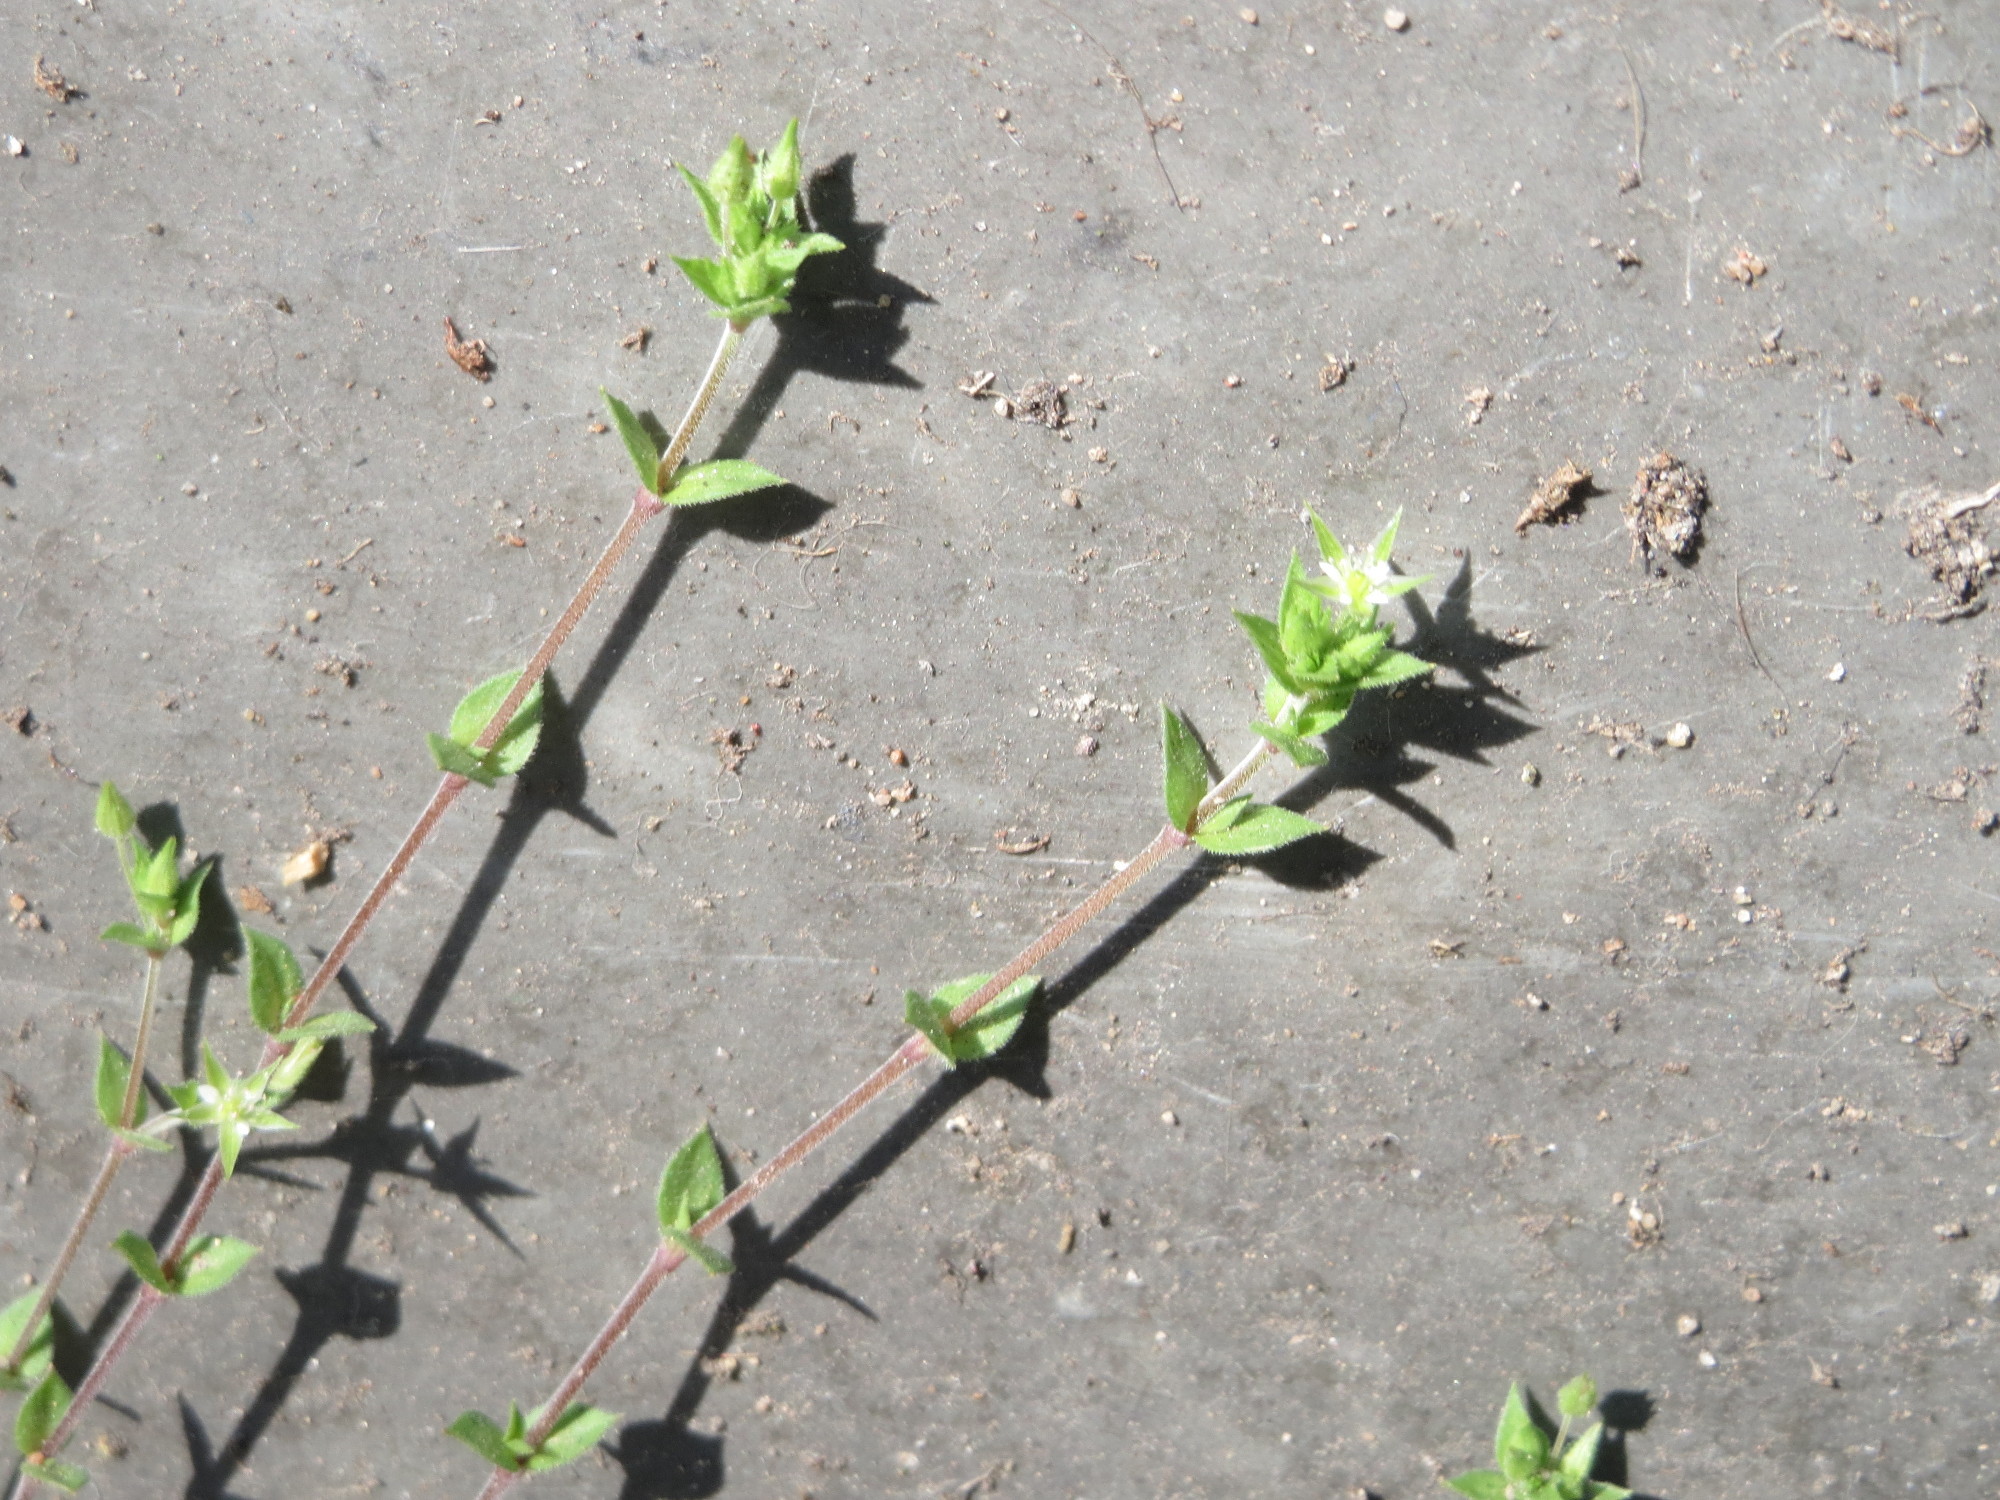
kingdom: Plantae
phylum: Tracheophyta
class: Magnoliopsida
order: Caryophyllales
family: Caryophyllaceae
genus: Arenaria
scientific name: Arenaria serpyllifolia
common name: Thyme-leaved sandwort
